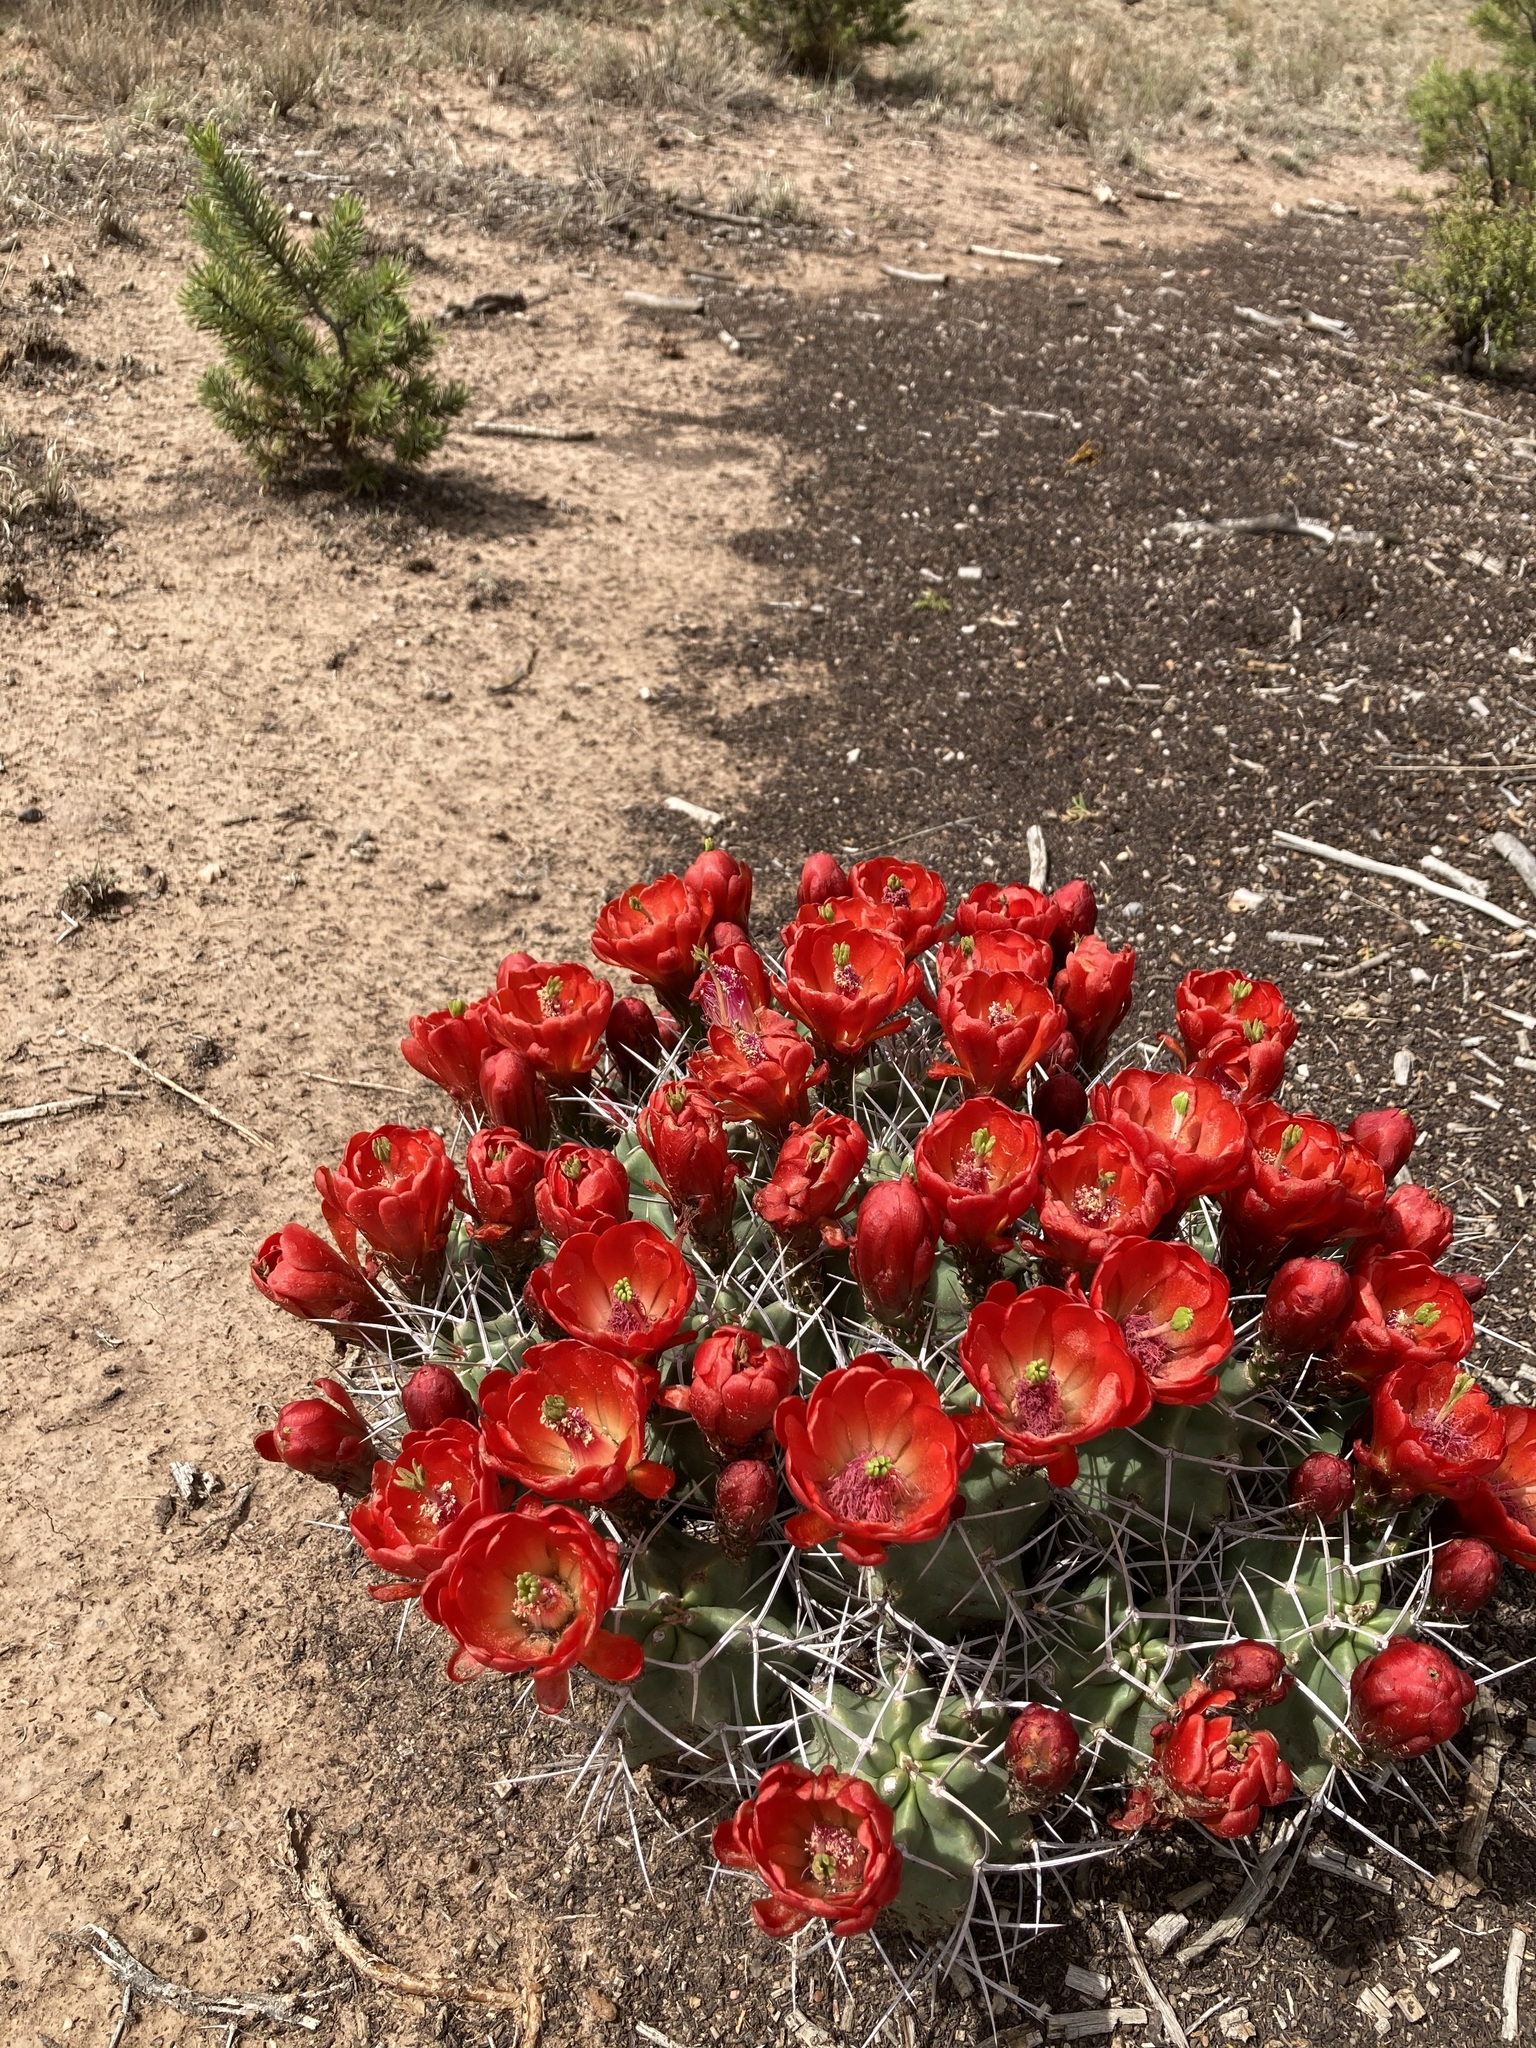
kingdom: Plantae
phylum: Tracheophyta
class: Magnoliopsida
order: Caryophyllales
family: Cactaceae
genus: Echinocereus
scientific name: Echinocereus triglochidiatus
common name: Claretcup hedgehog
